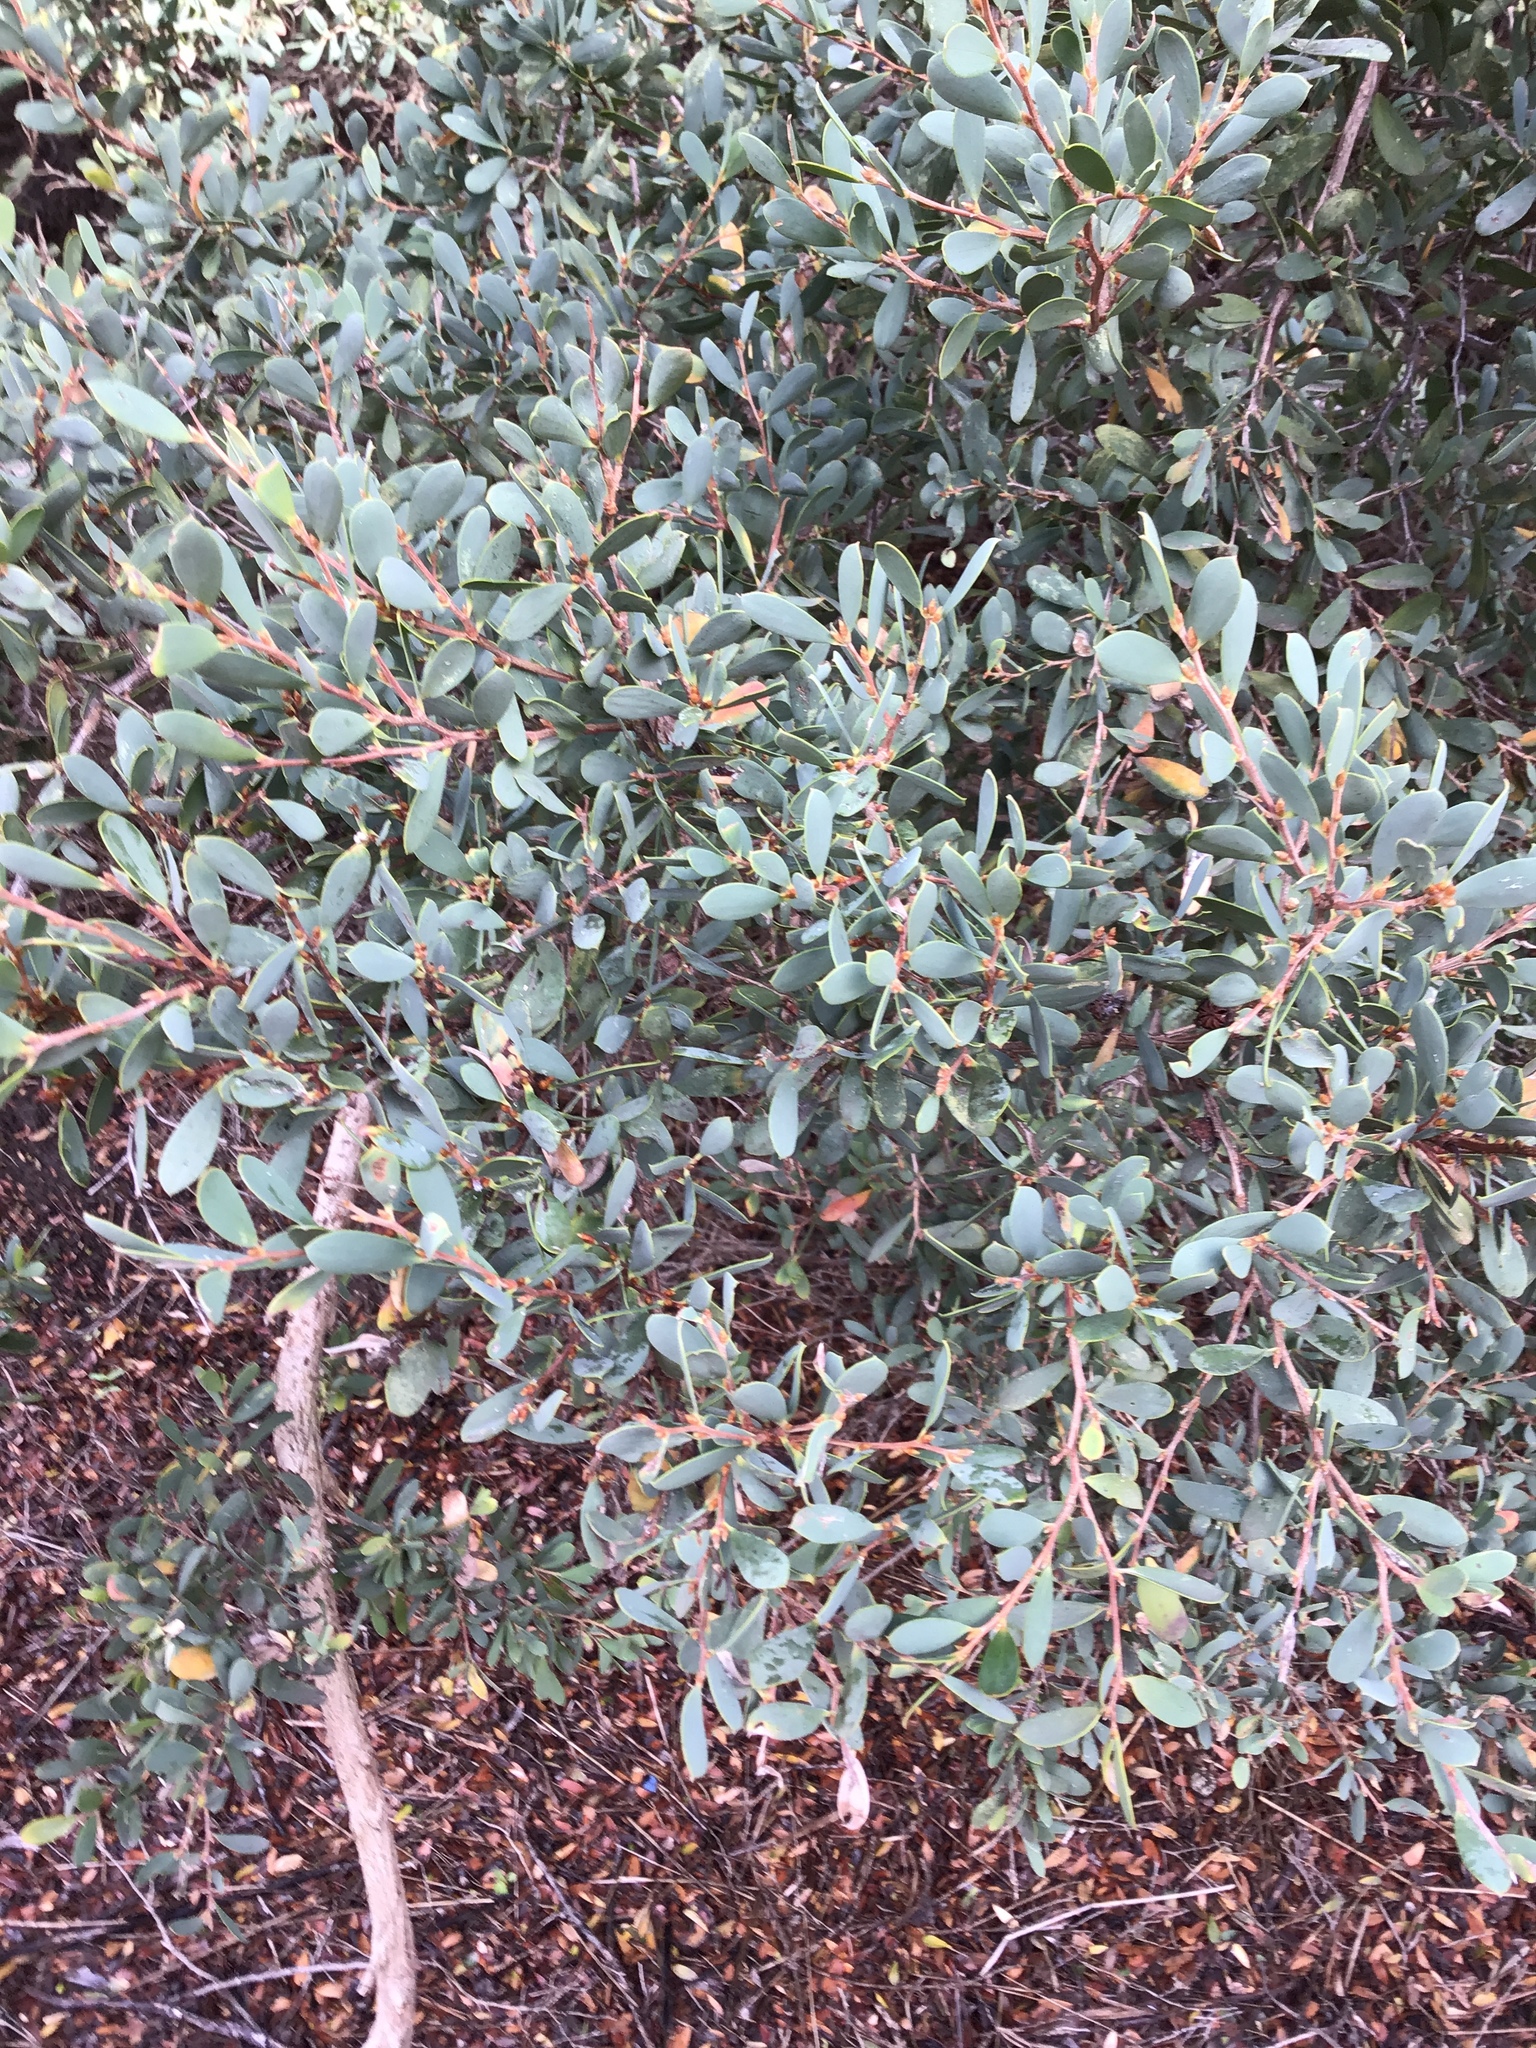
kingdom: Plantae
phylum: Tracheophyta
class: Magnoliopsida
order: Myrtales
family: Myrtaceae
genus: Leptospermum
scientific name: Leptospermum laevigatum
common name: Australian teatree
